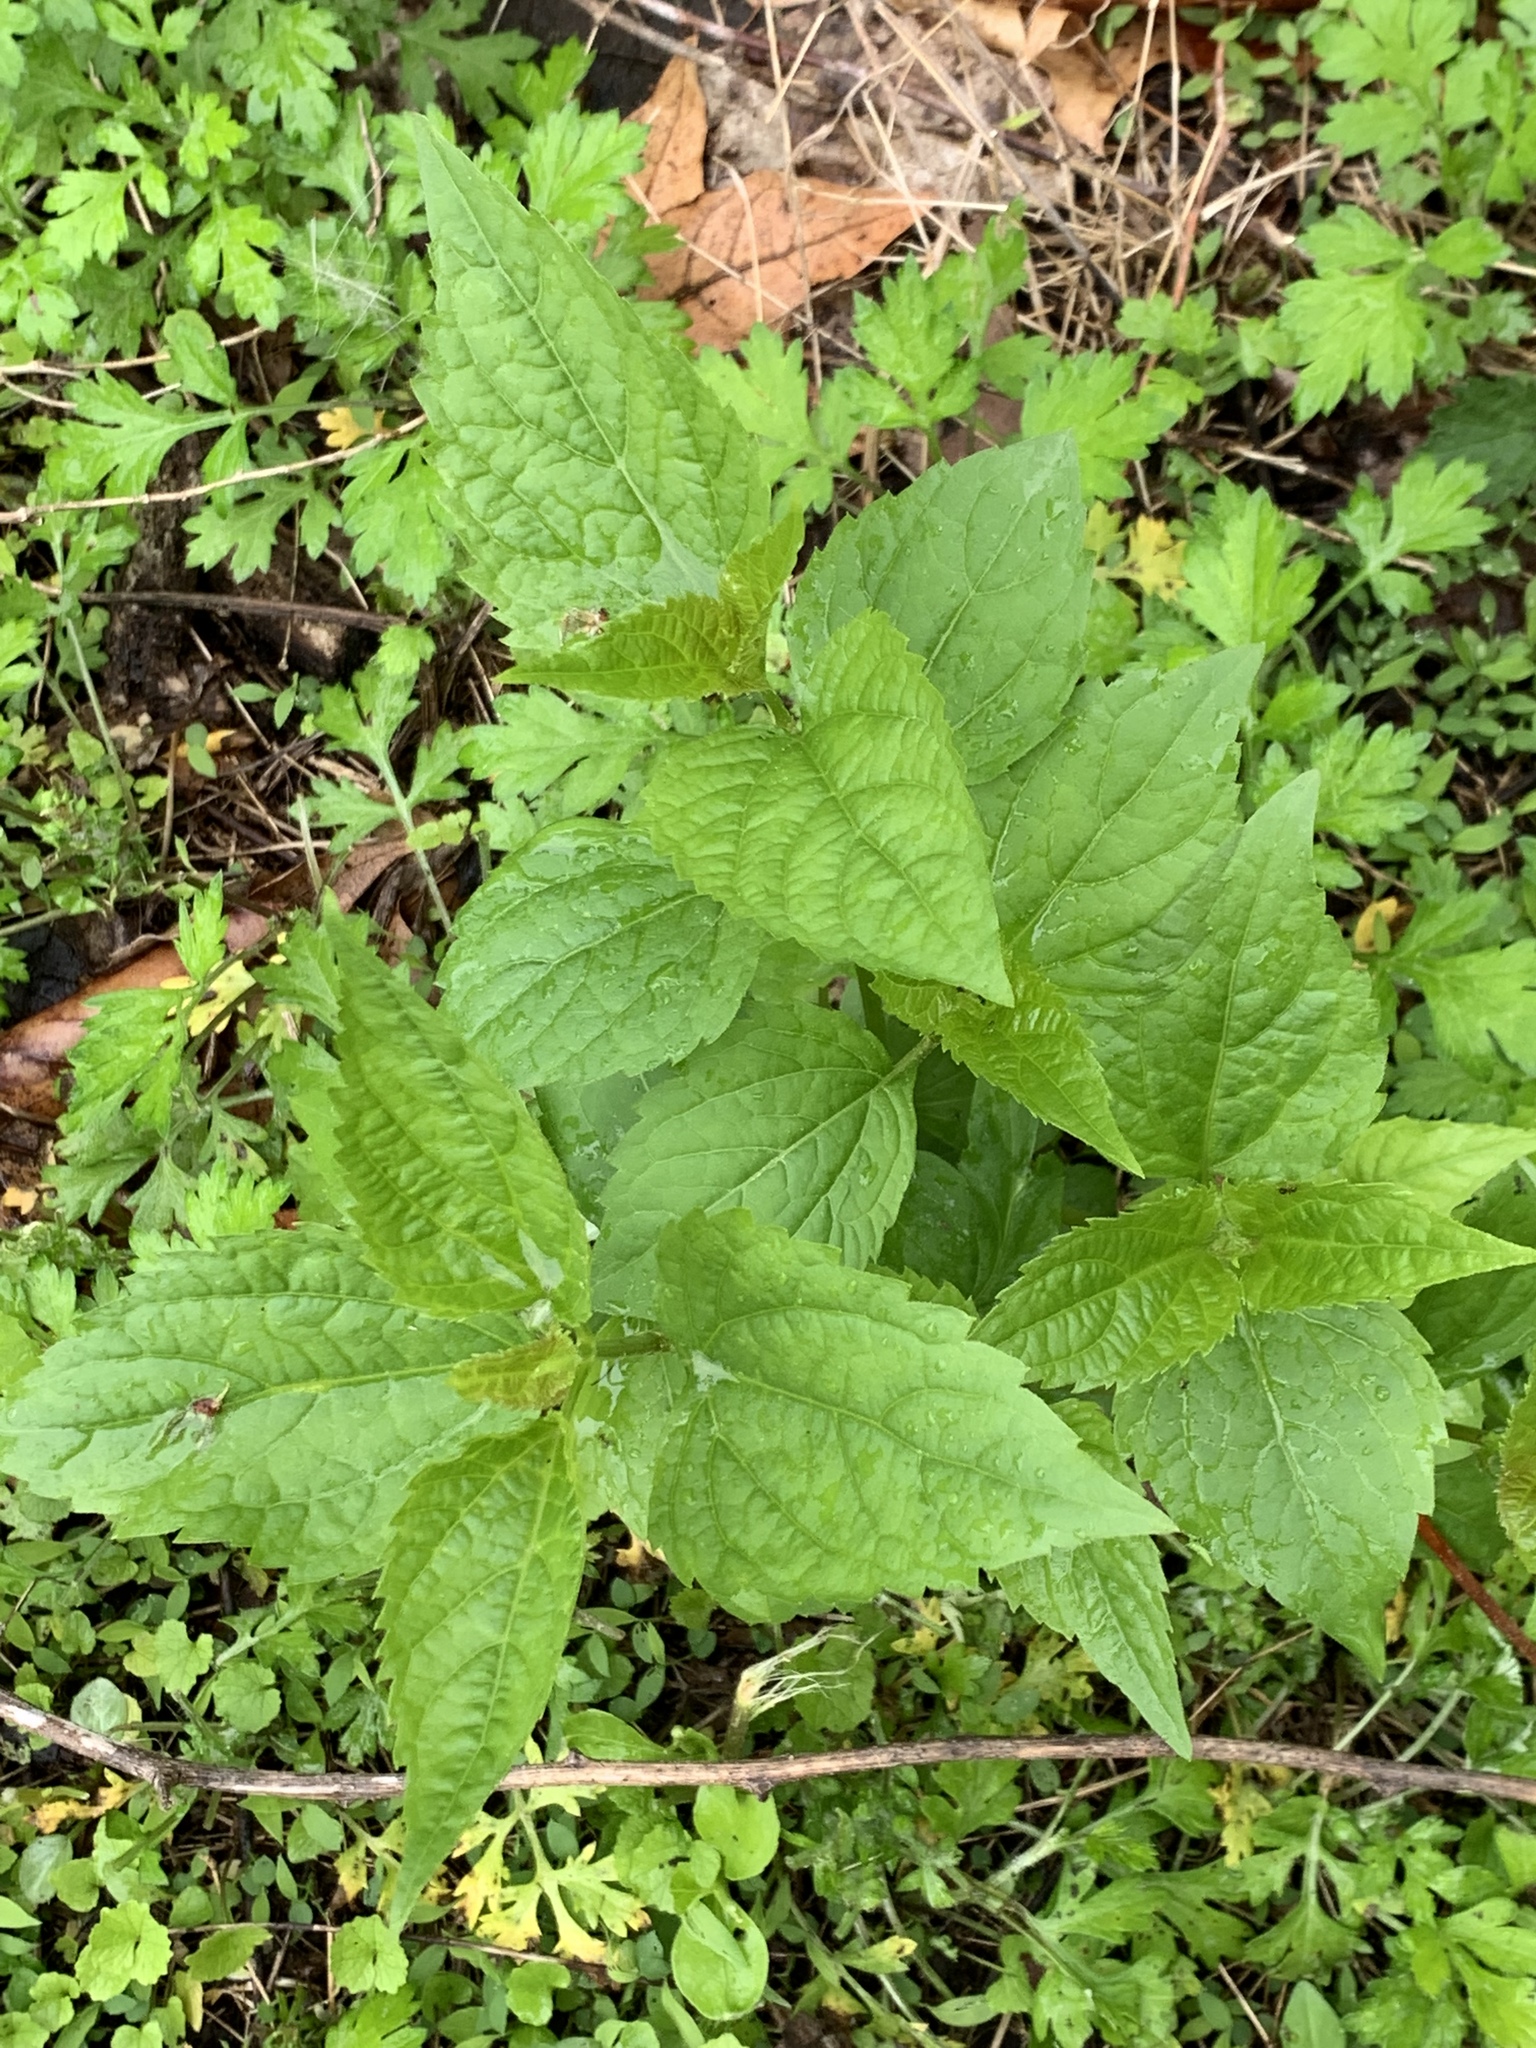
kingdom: Plantae
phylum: Tracheophyta
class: Magnoliopsida
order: Asterales
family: Asteraceae
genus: Ageratina
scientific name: Ageratina altissima
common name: White snakeroot
